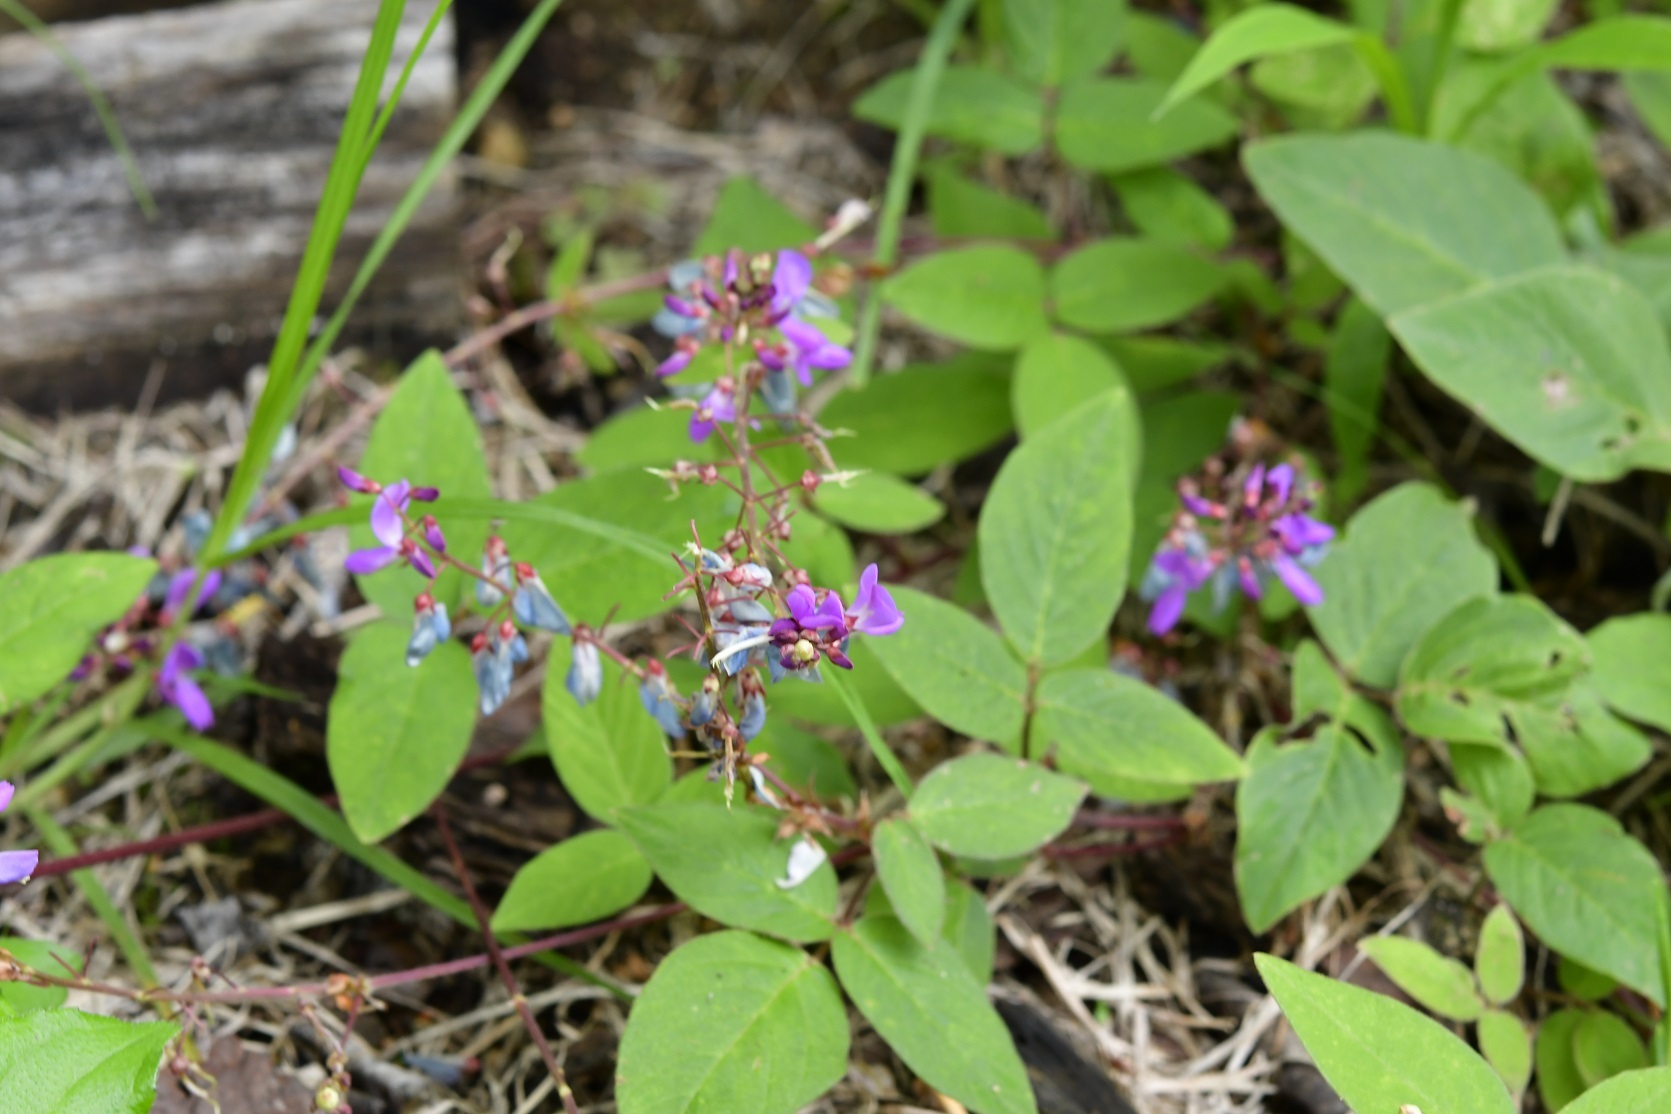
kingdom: Plantae
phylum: Tracheophyta
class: Magnoliopsida
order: Fabales
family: Fabaceae
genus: Desmodium
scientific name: Desmodium pringlei
